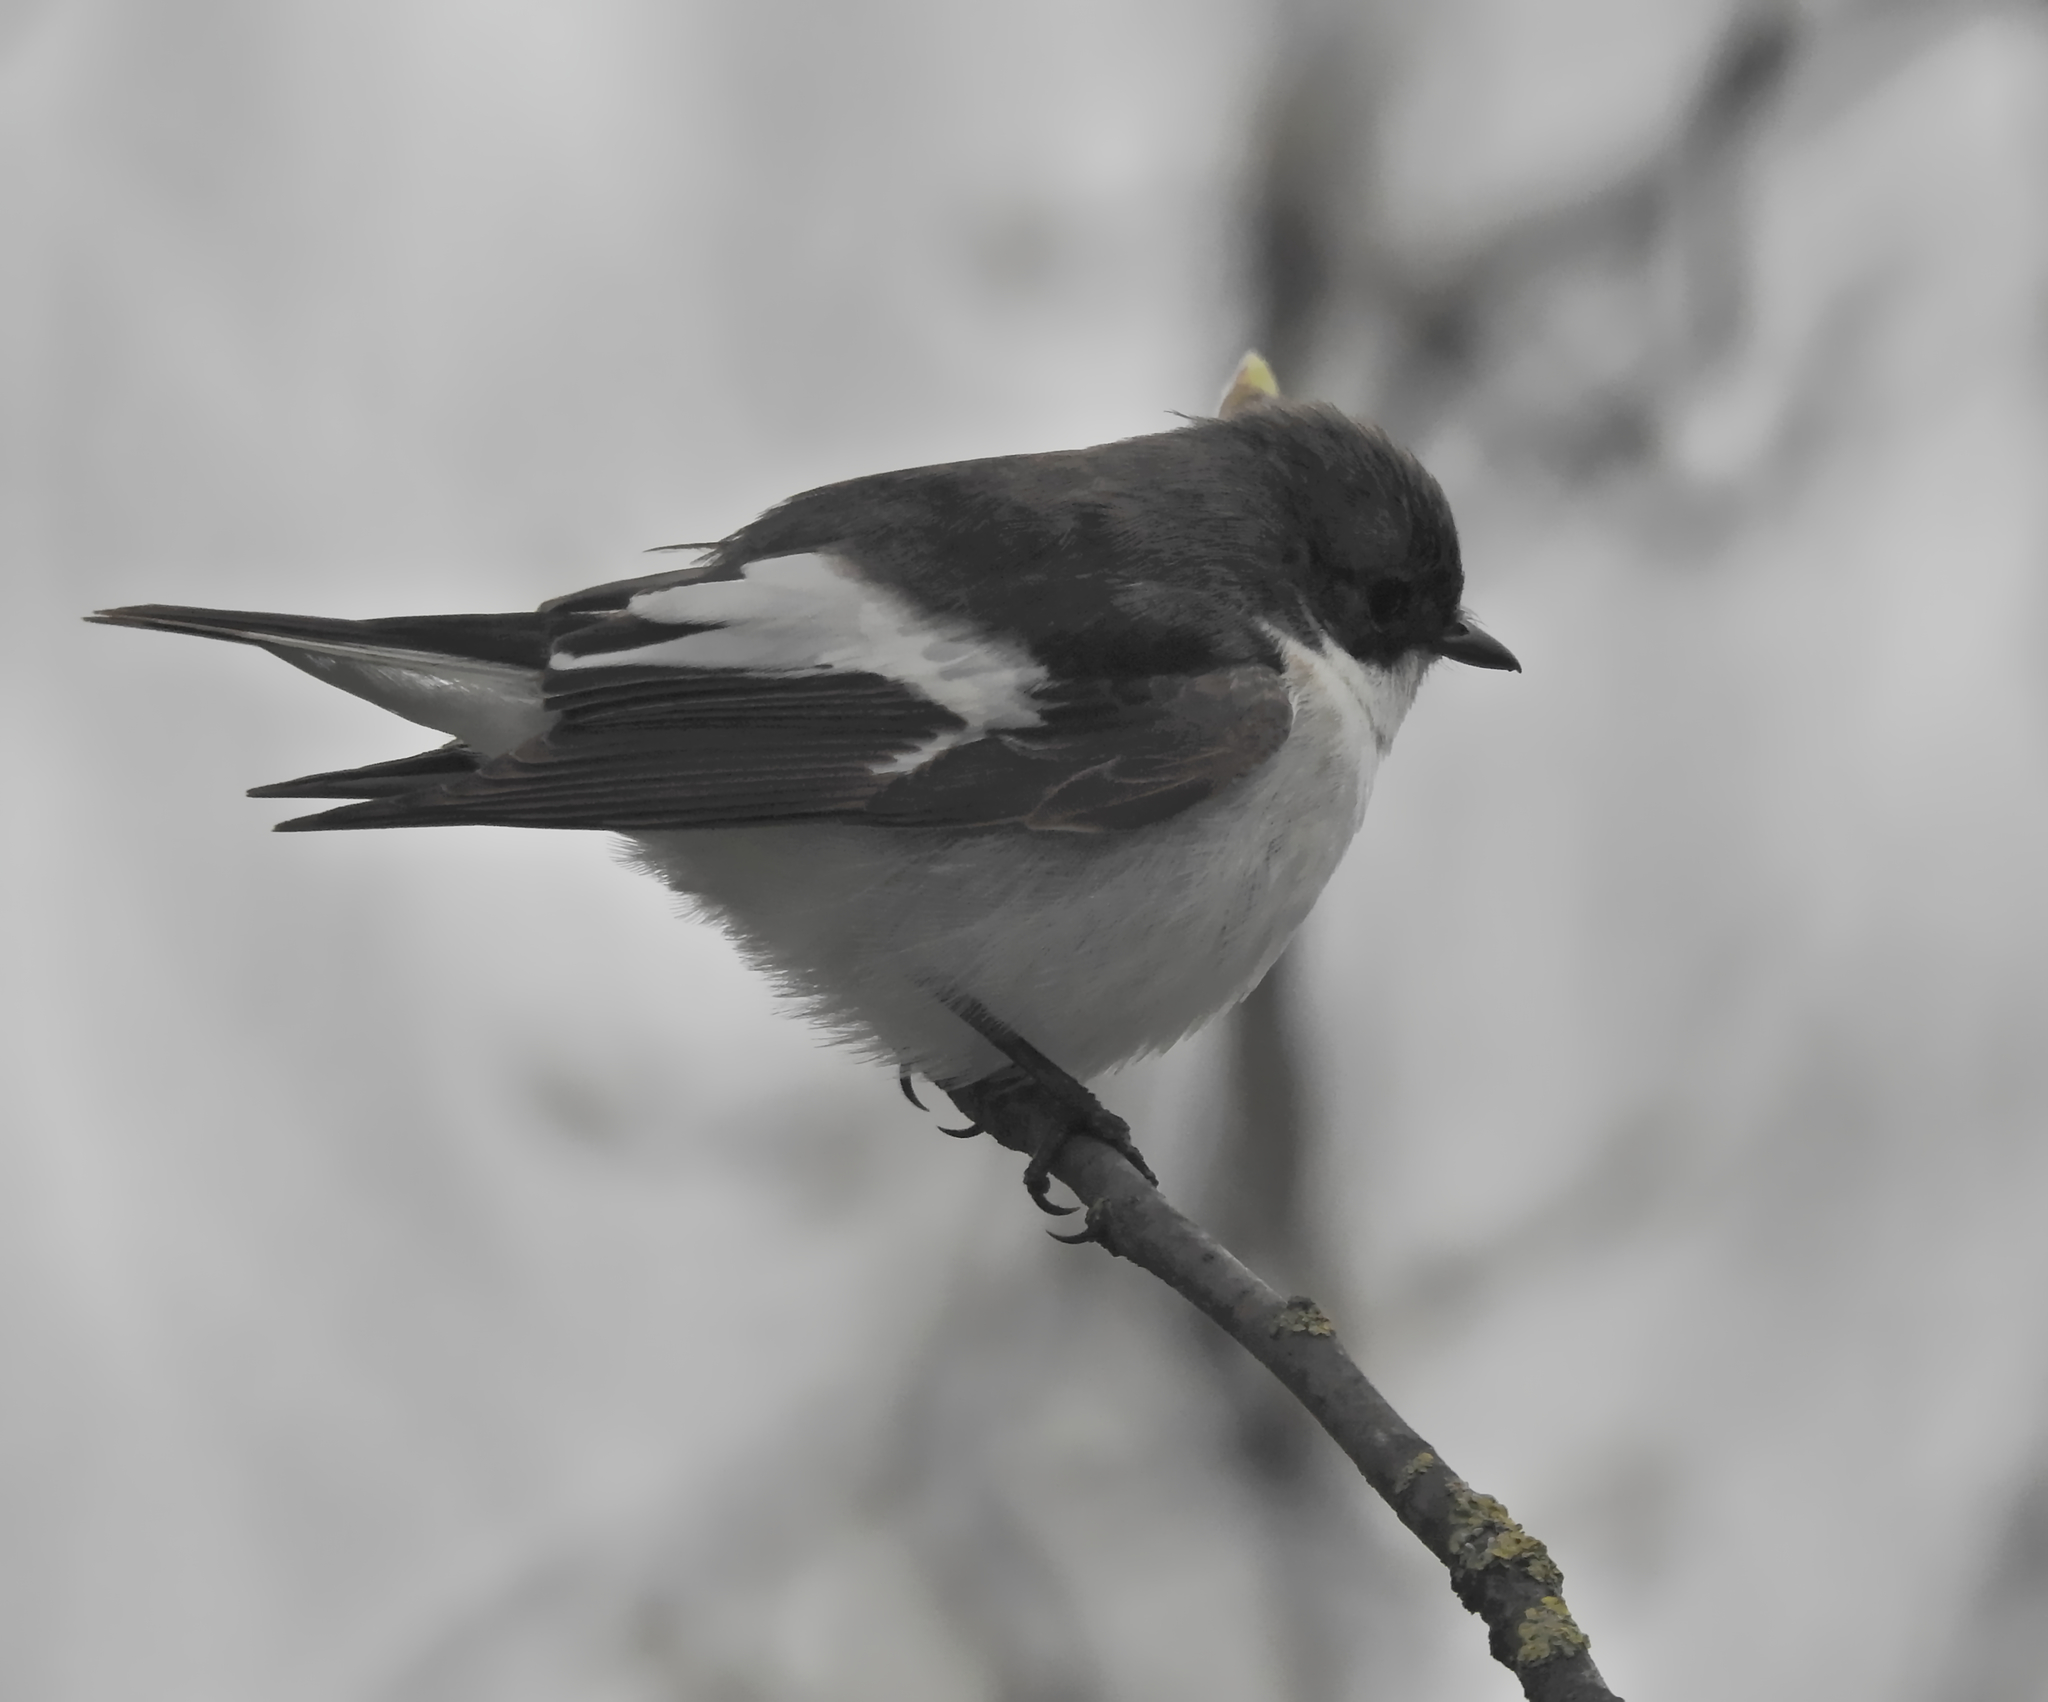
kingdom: Animalia
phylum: Chordata
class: Aves
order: Passeriformes
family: Muscicapidae
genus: Ficedula
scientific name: Ficedula hypoleuca
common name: European pied flycatcher
